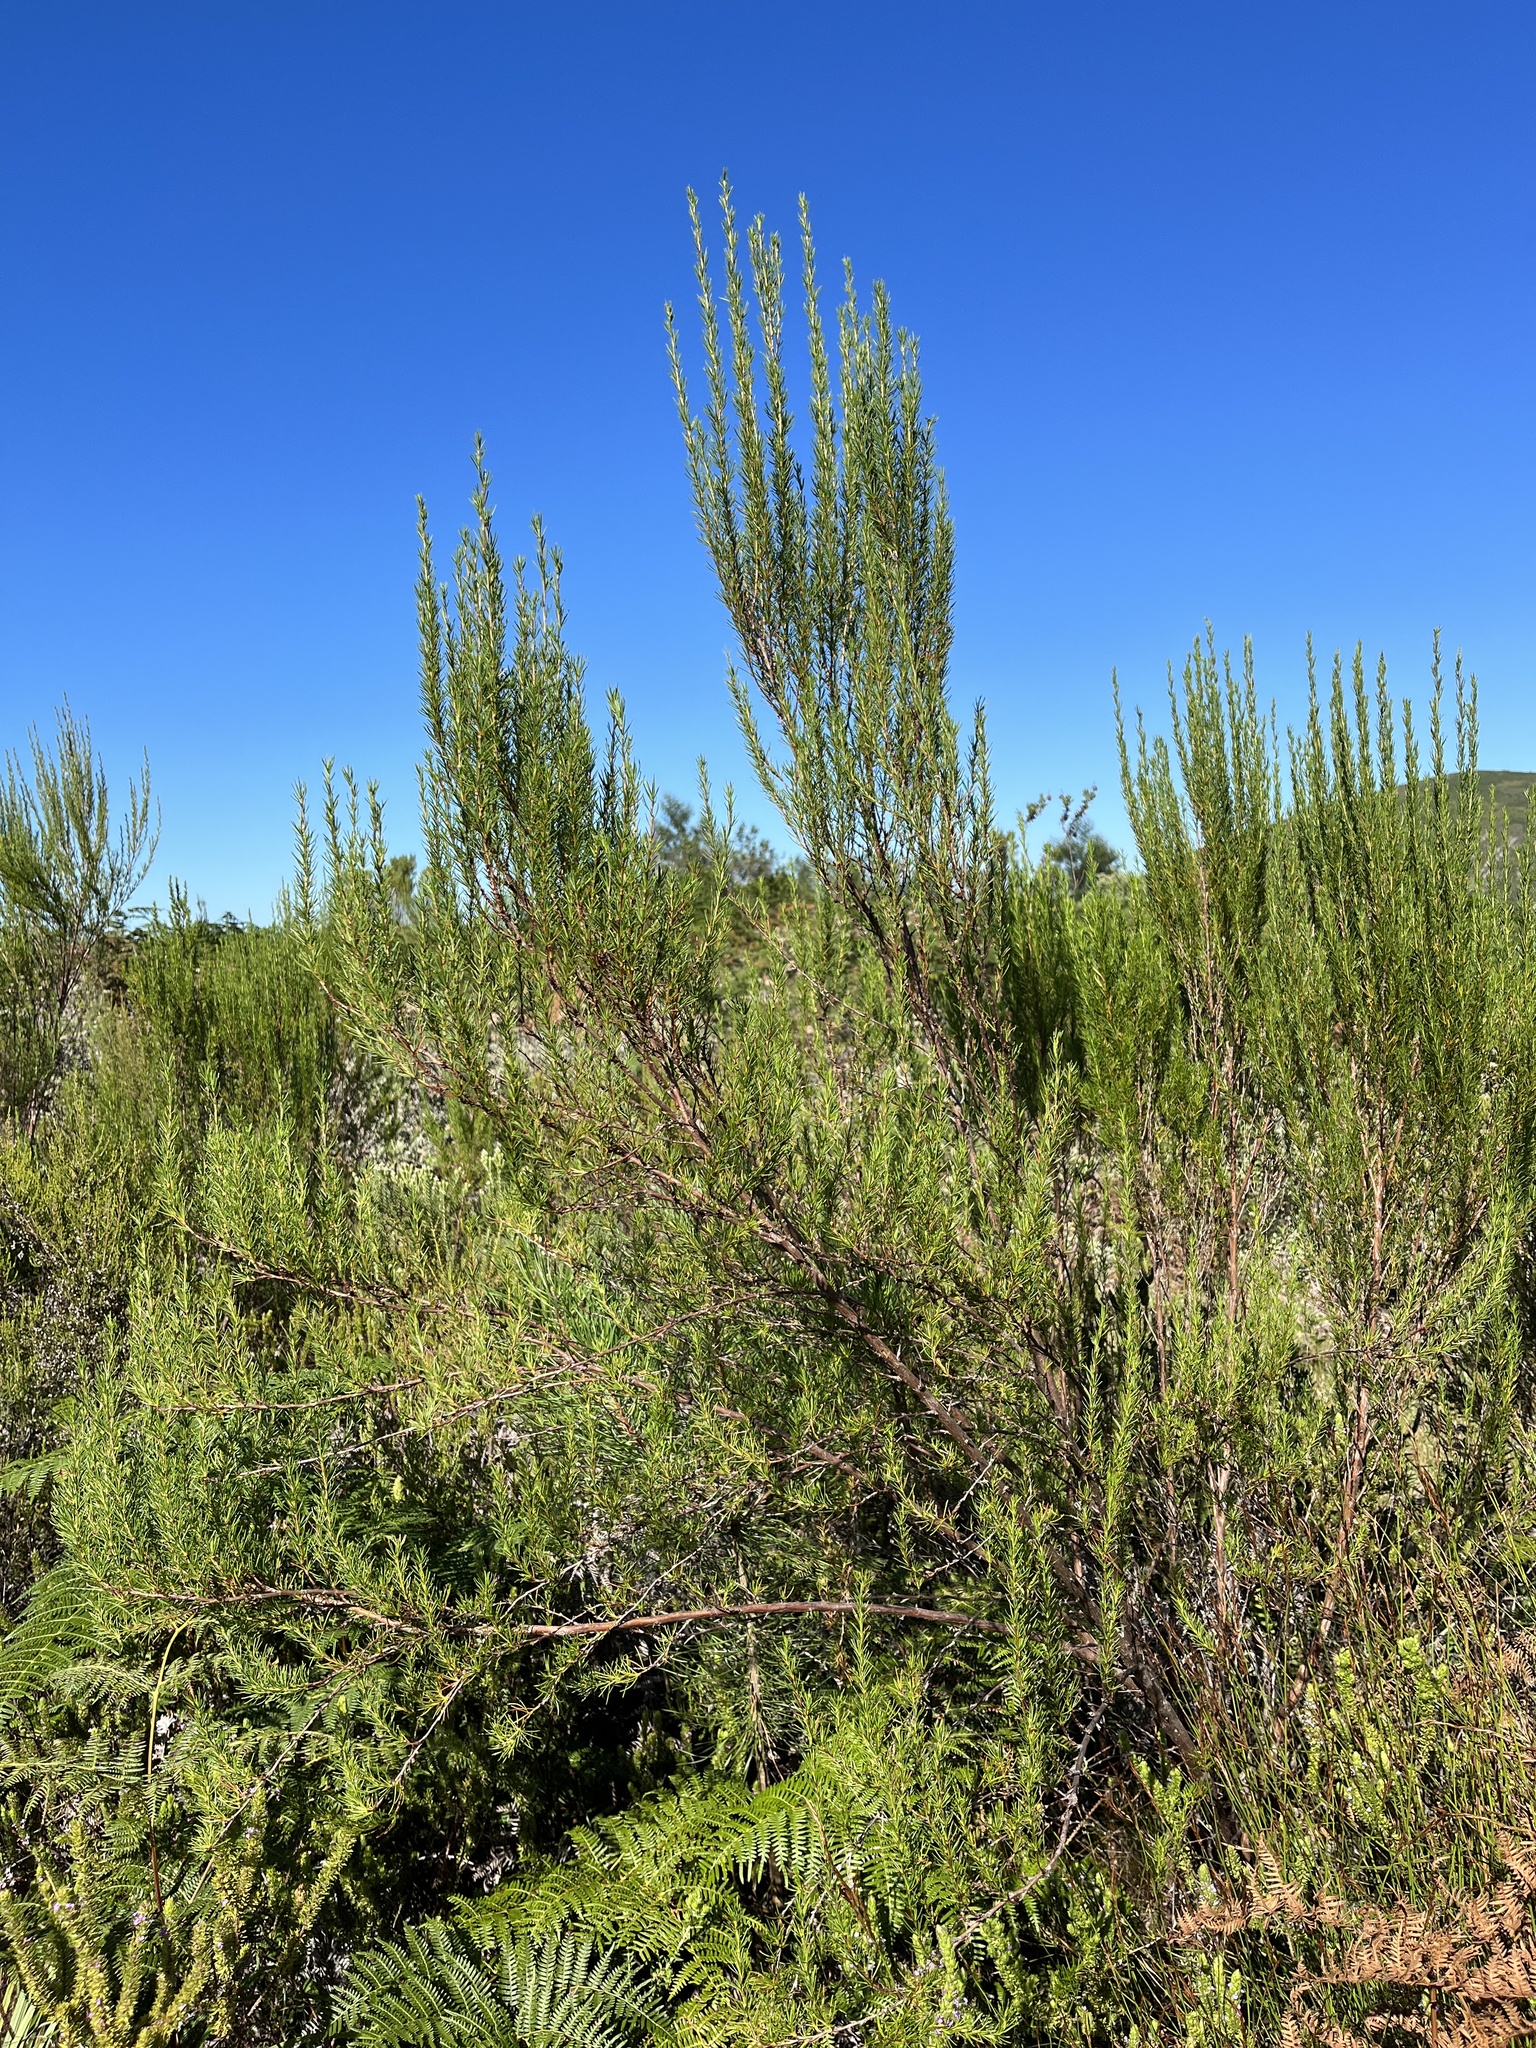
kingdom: Plantae
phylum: Tracheophyta
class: Magnoliopsida
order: Rosales
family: Rosaceae
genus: Cliffortia
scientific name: Cliffortia burchellii
